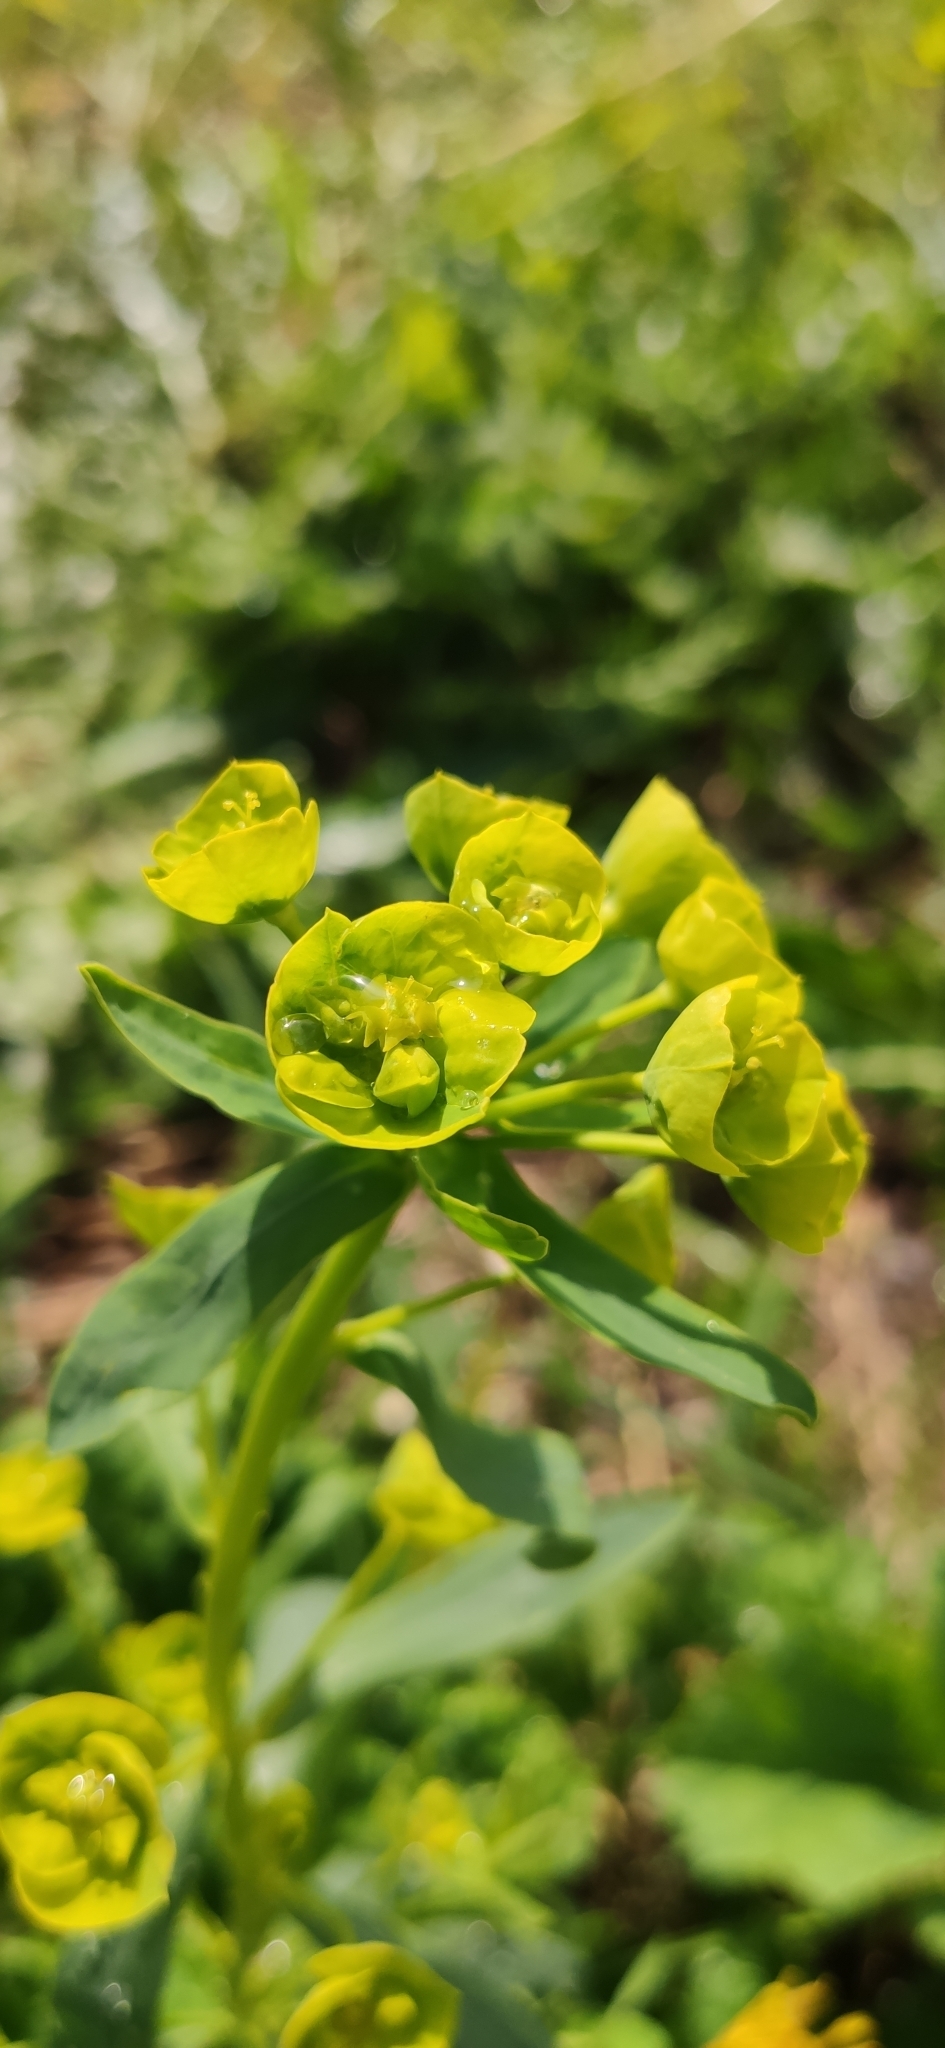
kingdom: Plantae
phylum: Tracheophyta
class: Magnoliopsida
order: Malpighiales
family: Euphorbiaceae
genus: Euphorbia
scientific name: Euphorbia virgata
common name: Leafy spurge
